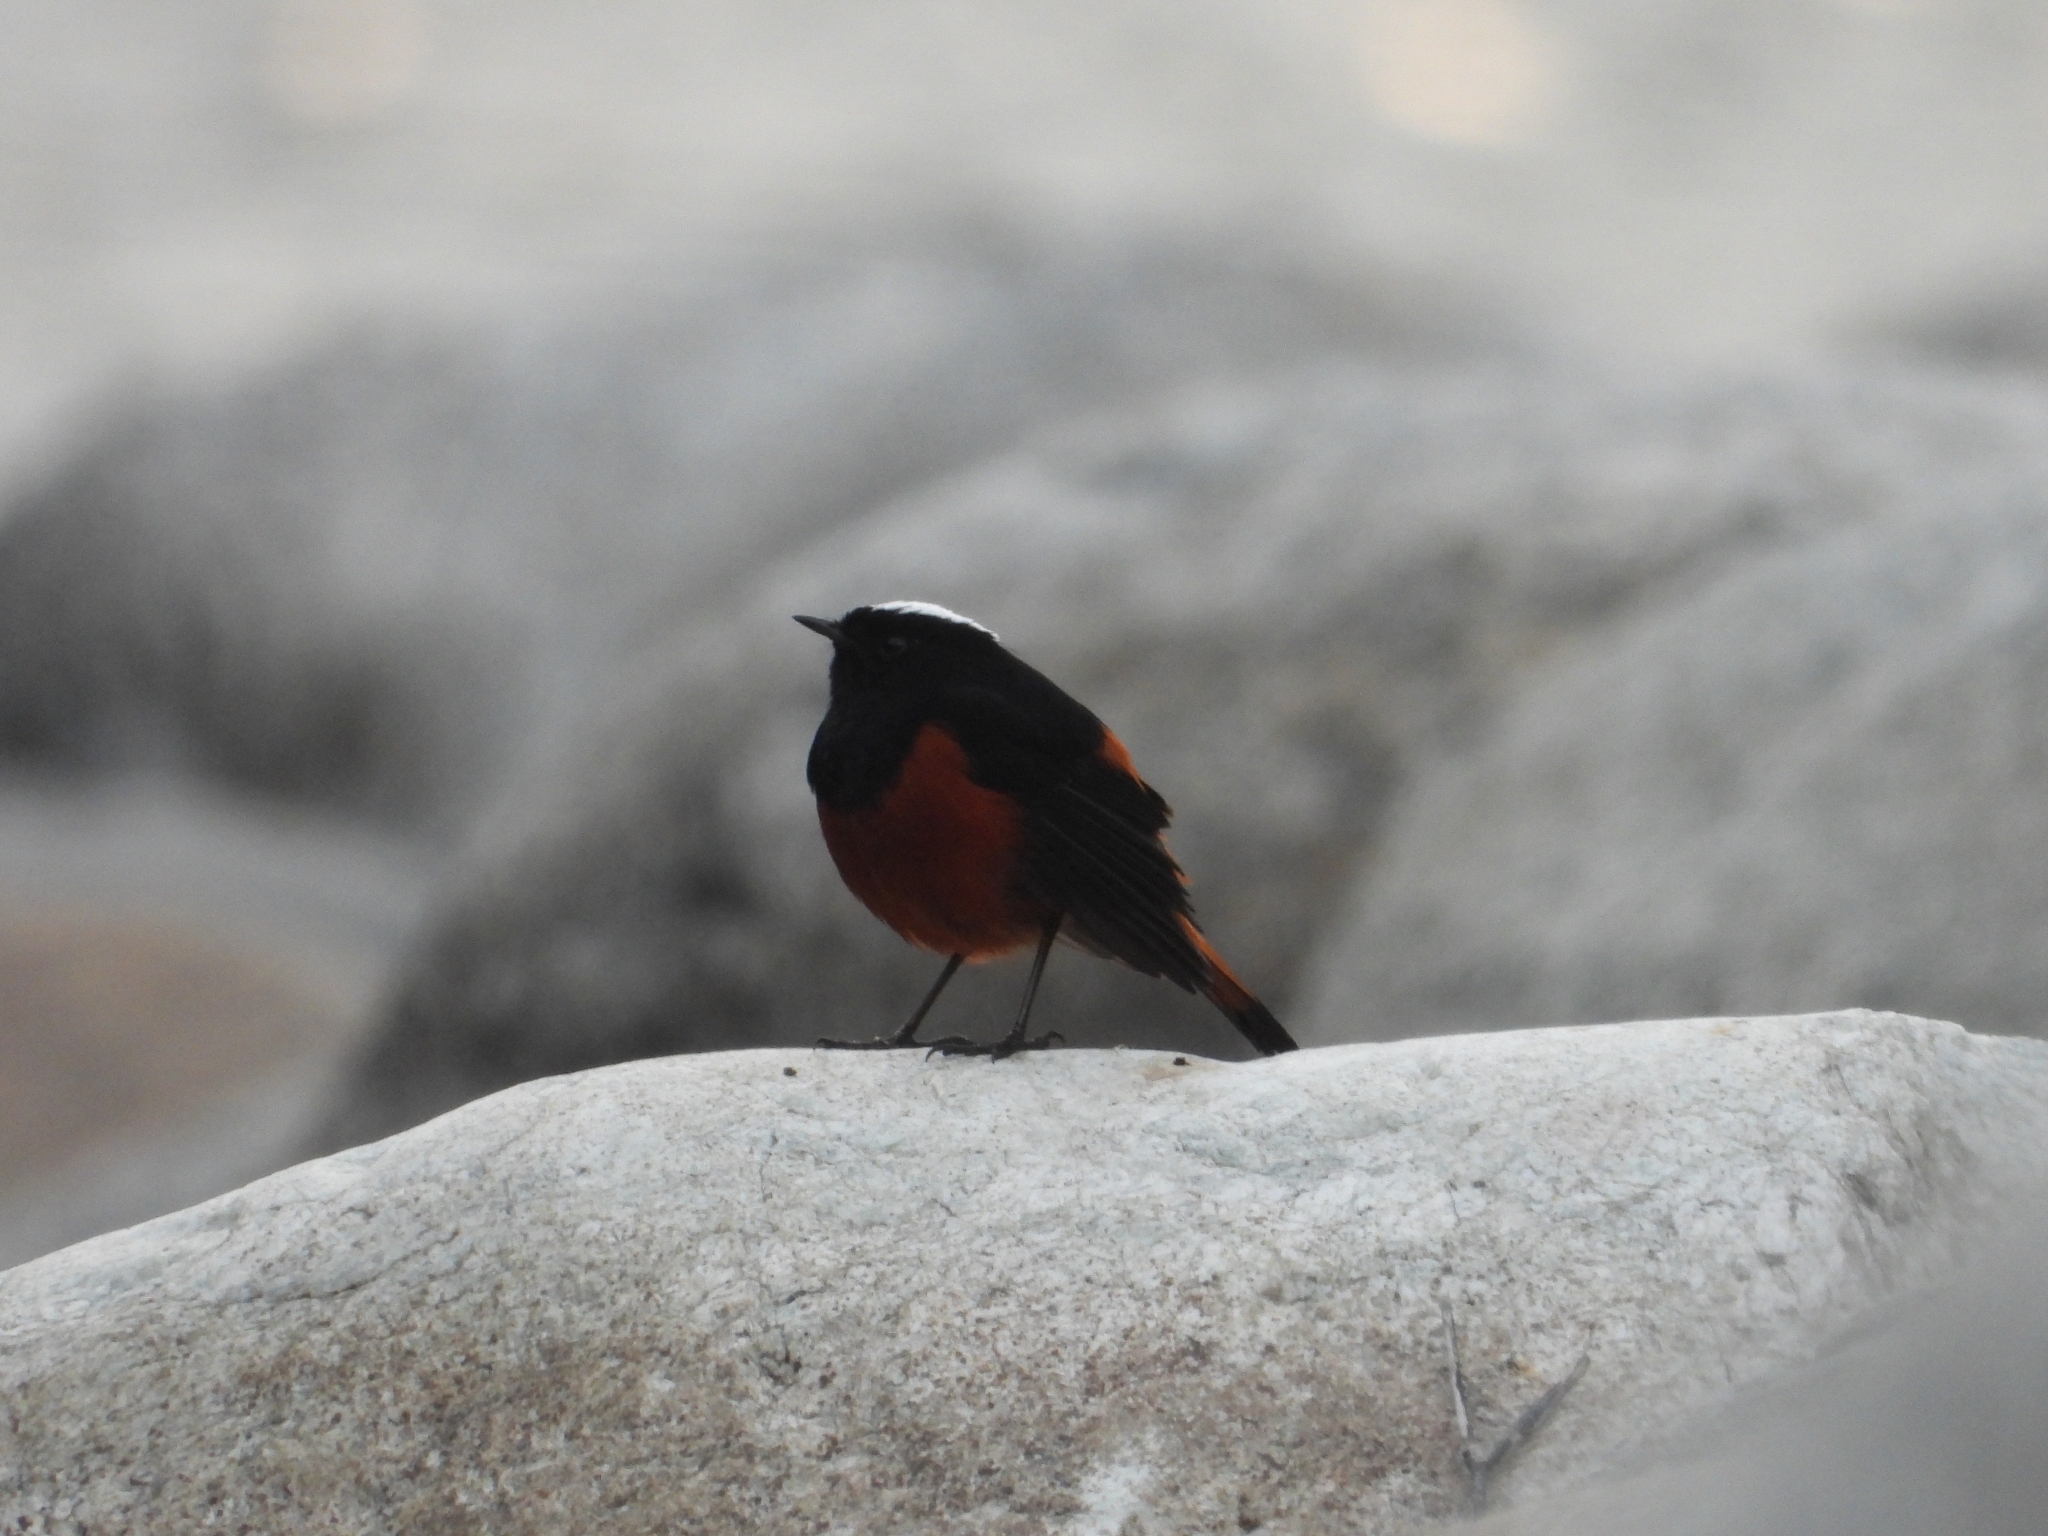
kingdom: Animalia
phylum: Chordata
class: Aves
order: Passeriformes
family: Muscicapidae
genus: Chaimarrornis
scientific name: Chaimarrornis leucocephalus
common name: White-capped redstart
